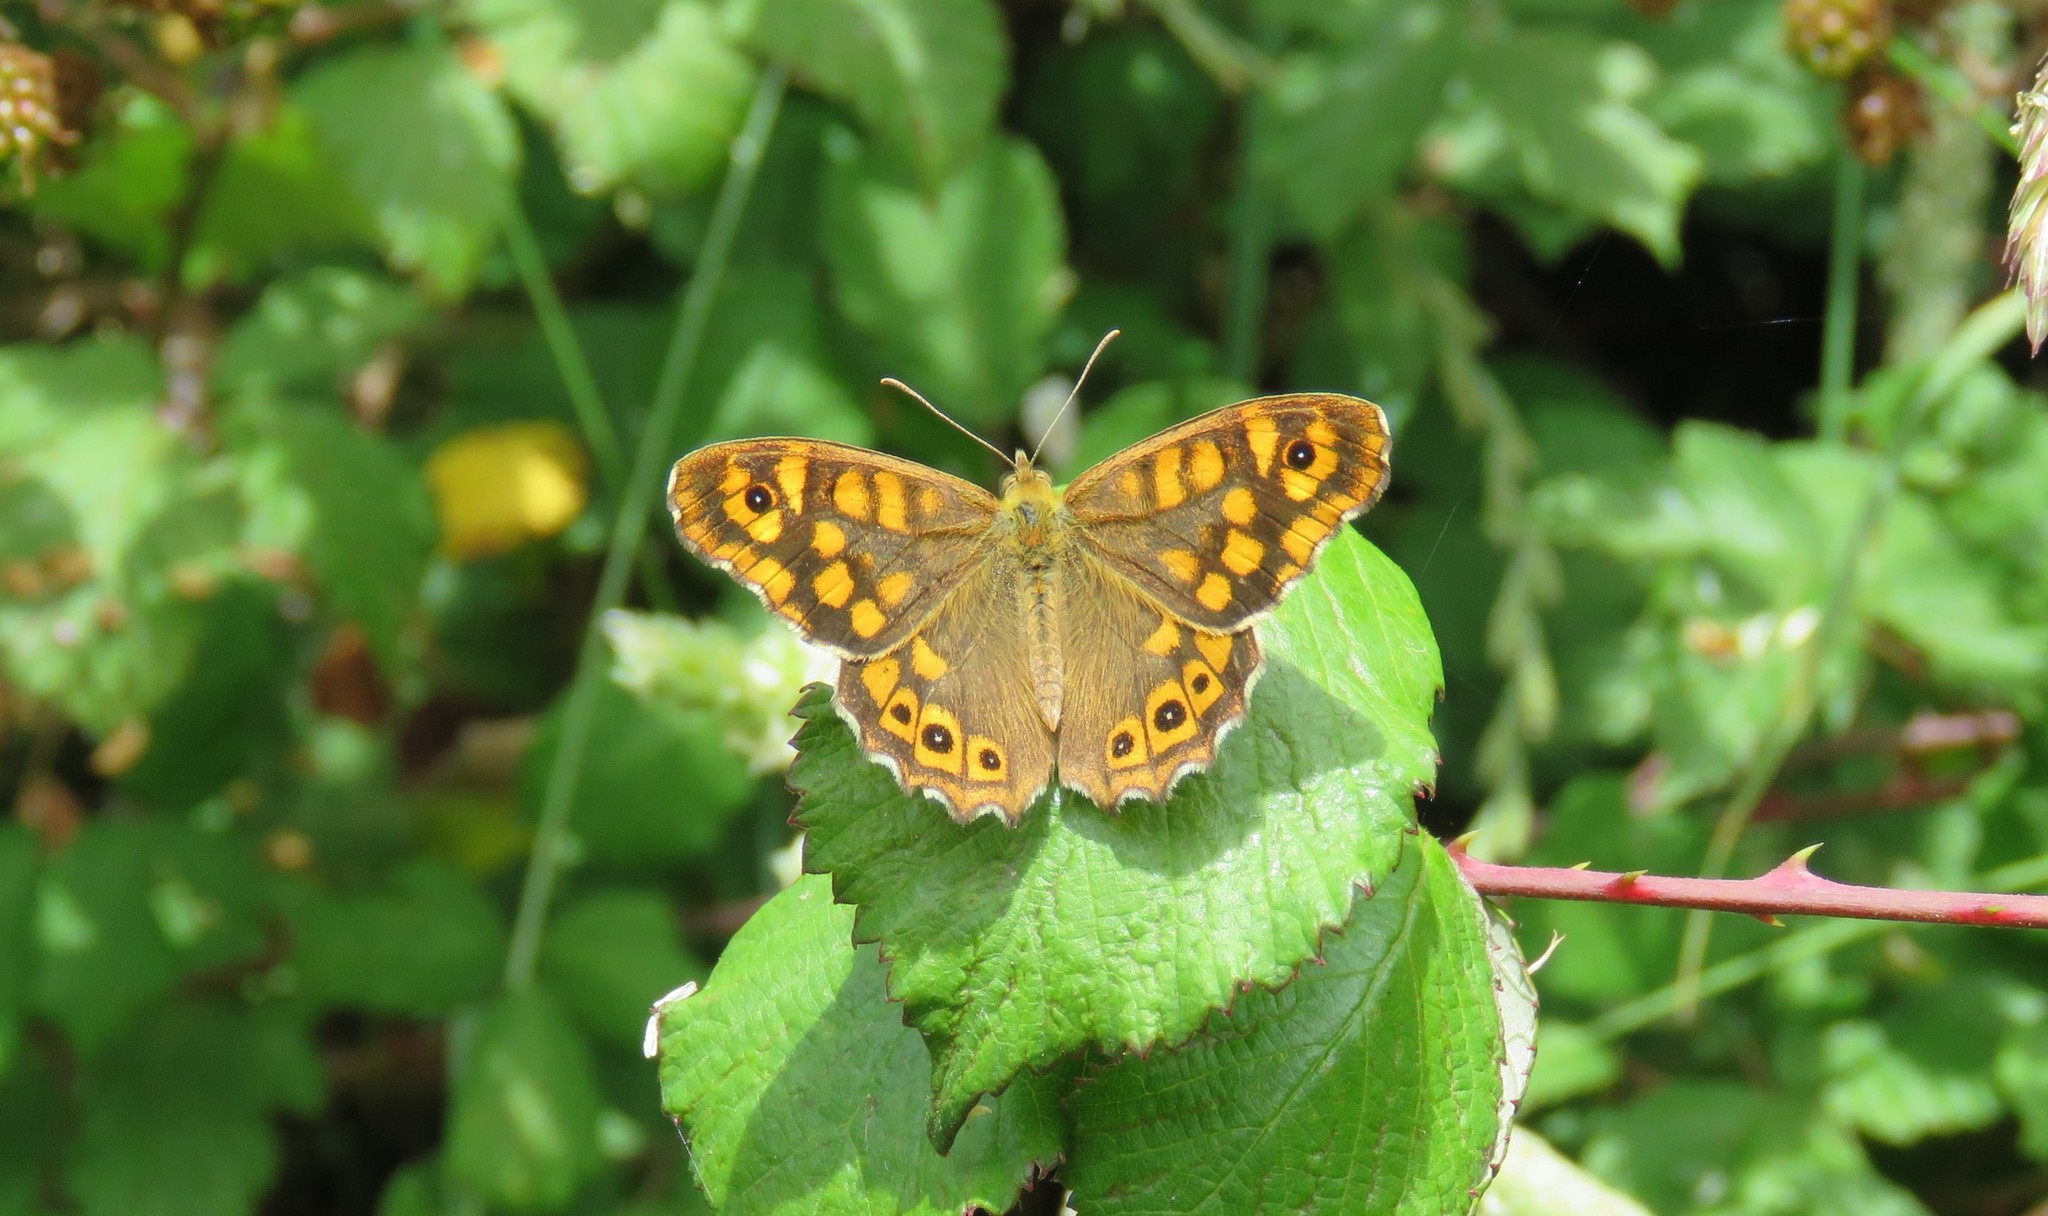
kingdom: Animalia
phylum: Arthropoda
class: Insecta
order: Lepidoptera
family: Nymphalidae
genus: Pararge
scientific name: Pararge aegeria
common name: Speckled wood
